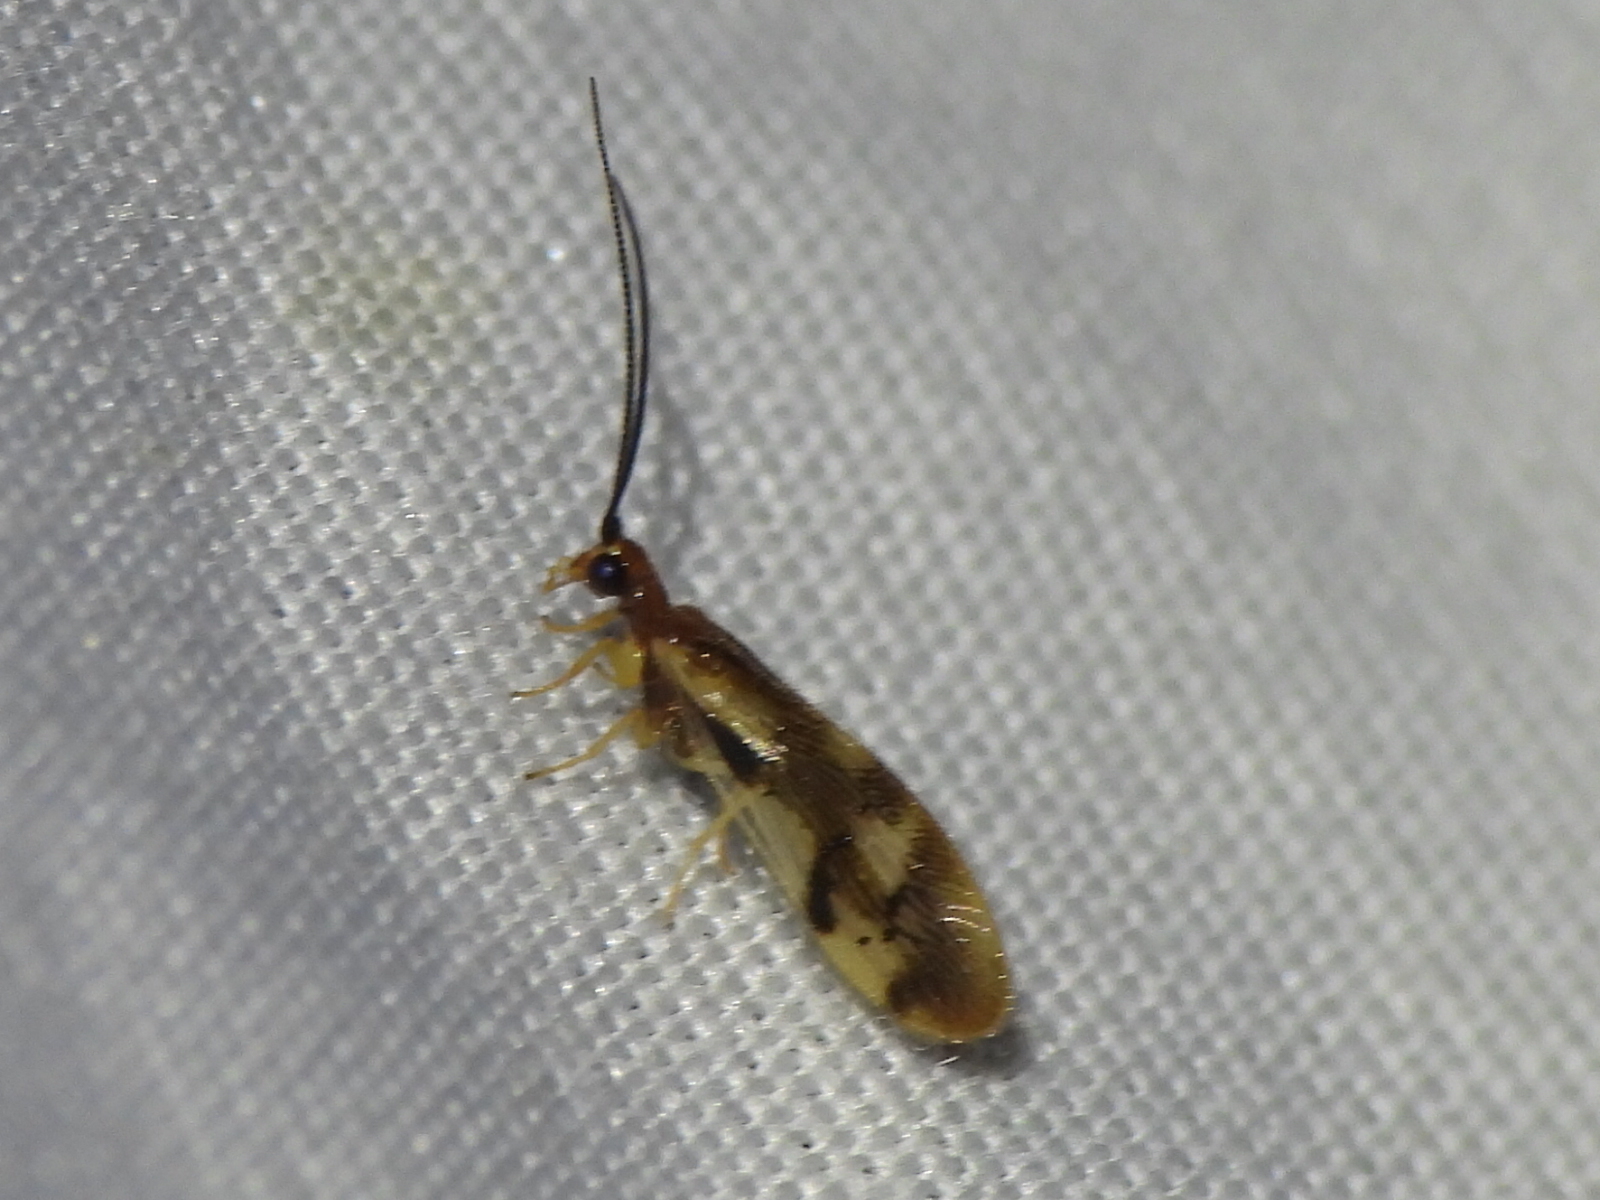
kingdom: Animalia
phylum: Arthropoda
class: Insecta
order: Neuroptera
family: Sisyridae
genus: Climacia
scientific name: Climacia areolaris
